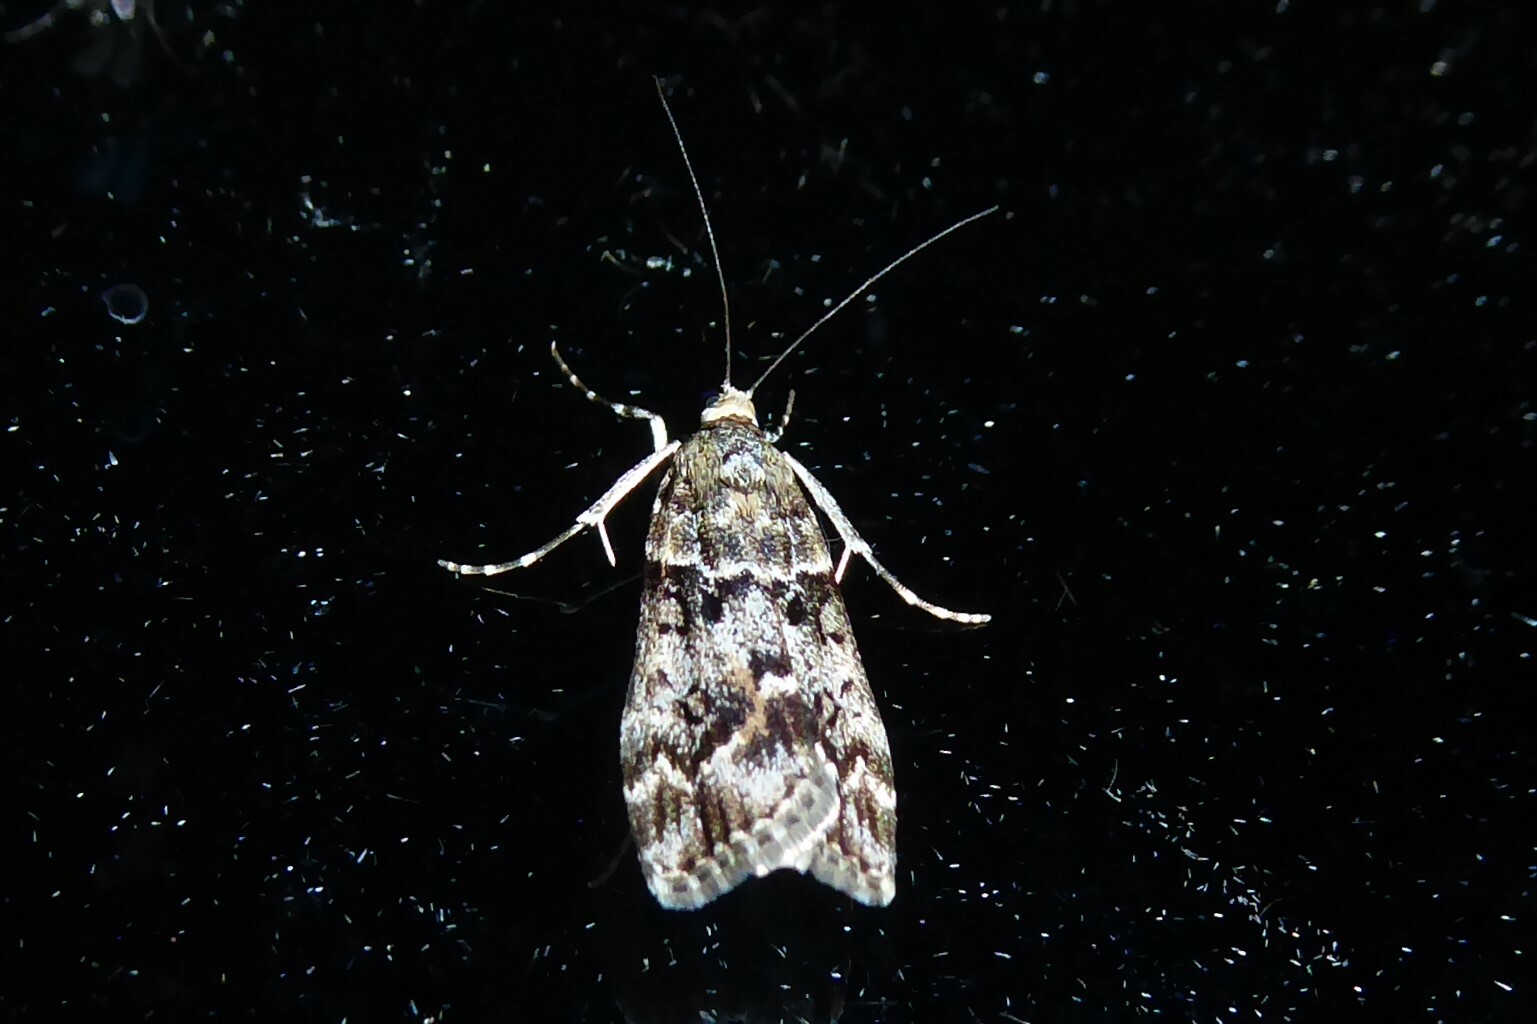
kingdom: Animalia
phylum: Arthropoda
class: Insecta
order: Lepidoptera
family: Crambidae
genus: Eudonia
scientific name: Eudonia submarginalis
